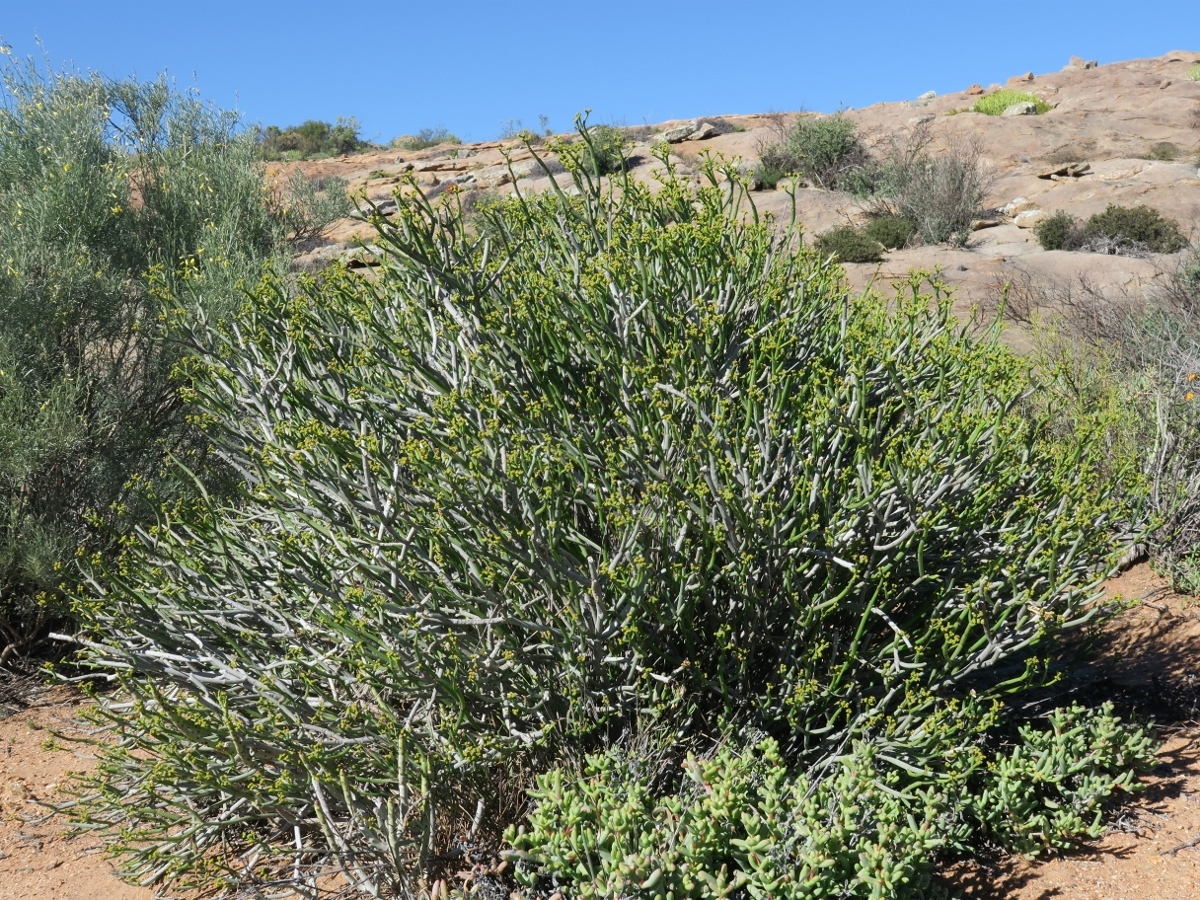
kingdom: Plantae
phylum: Tracheophyta
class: Magnoliopsida
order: Malpighiales
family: Euphorbiaceae
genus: Euphorbia
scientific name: Euphorbia burmanni
